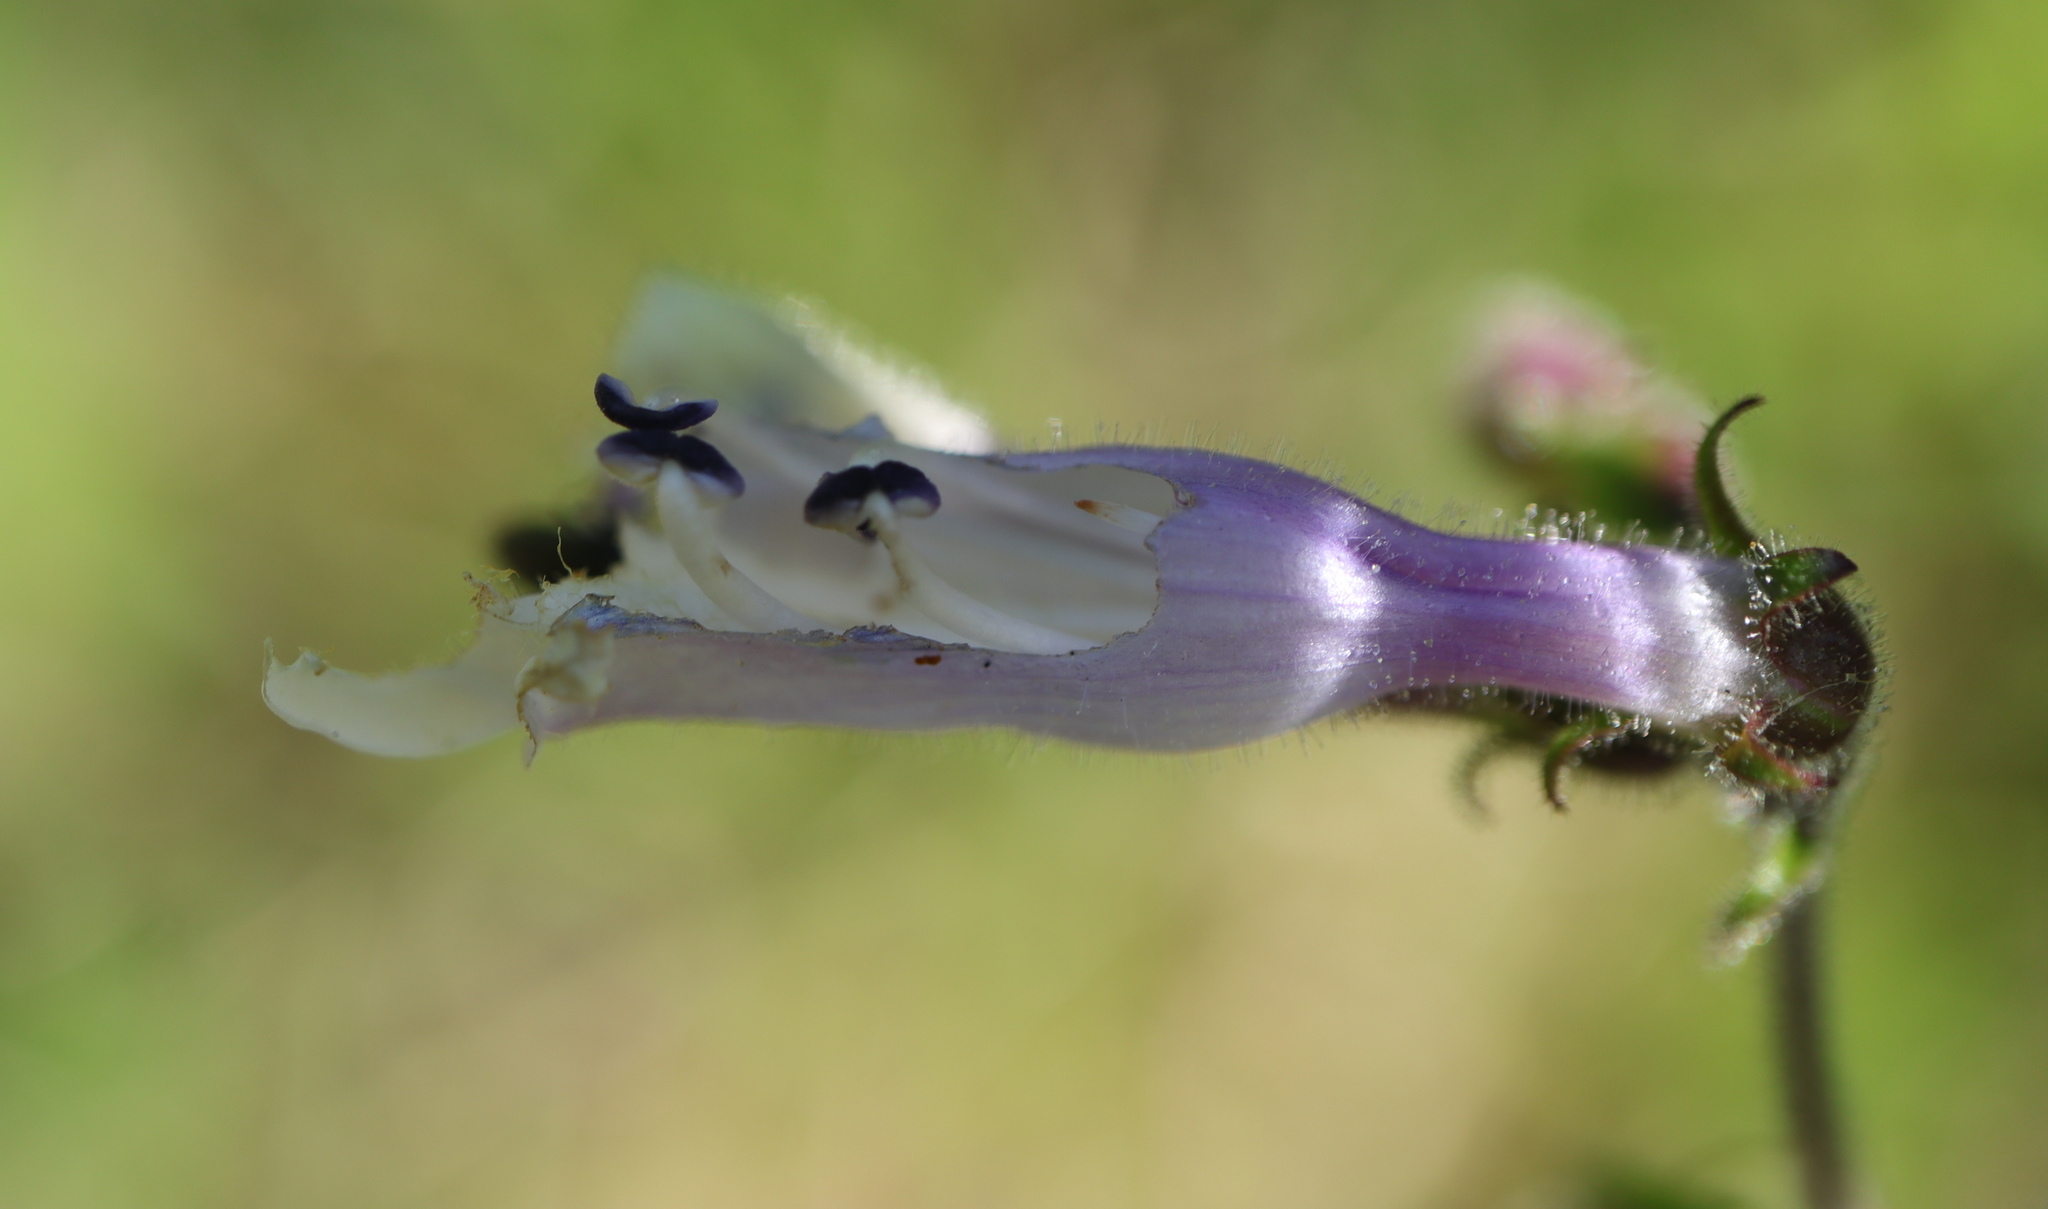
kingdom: Plantae
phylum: Tracheophyta
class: Magnoliopsida
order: Lamiales
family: Plantaginaceae
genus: Penstemon
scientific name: Penstemon hirsutus
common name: Hairy beardtongue
